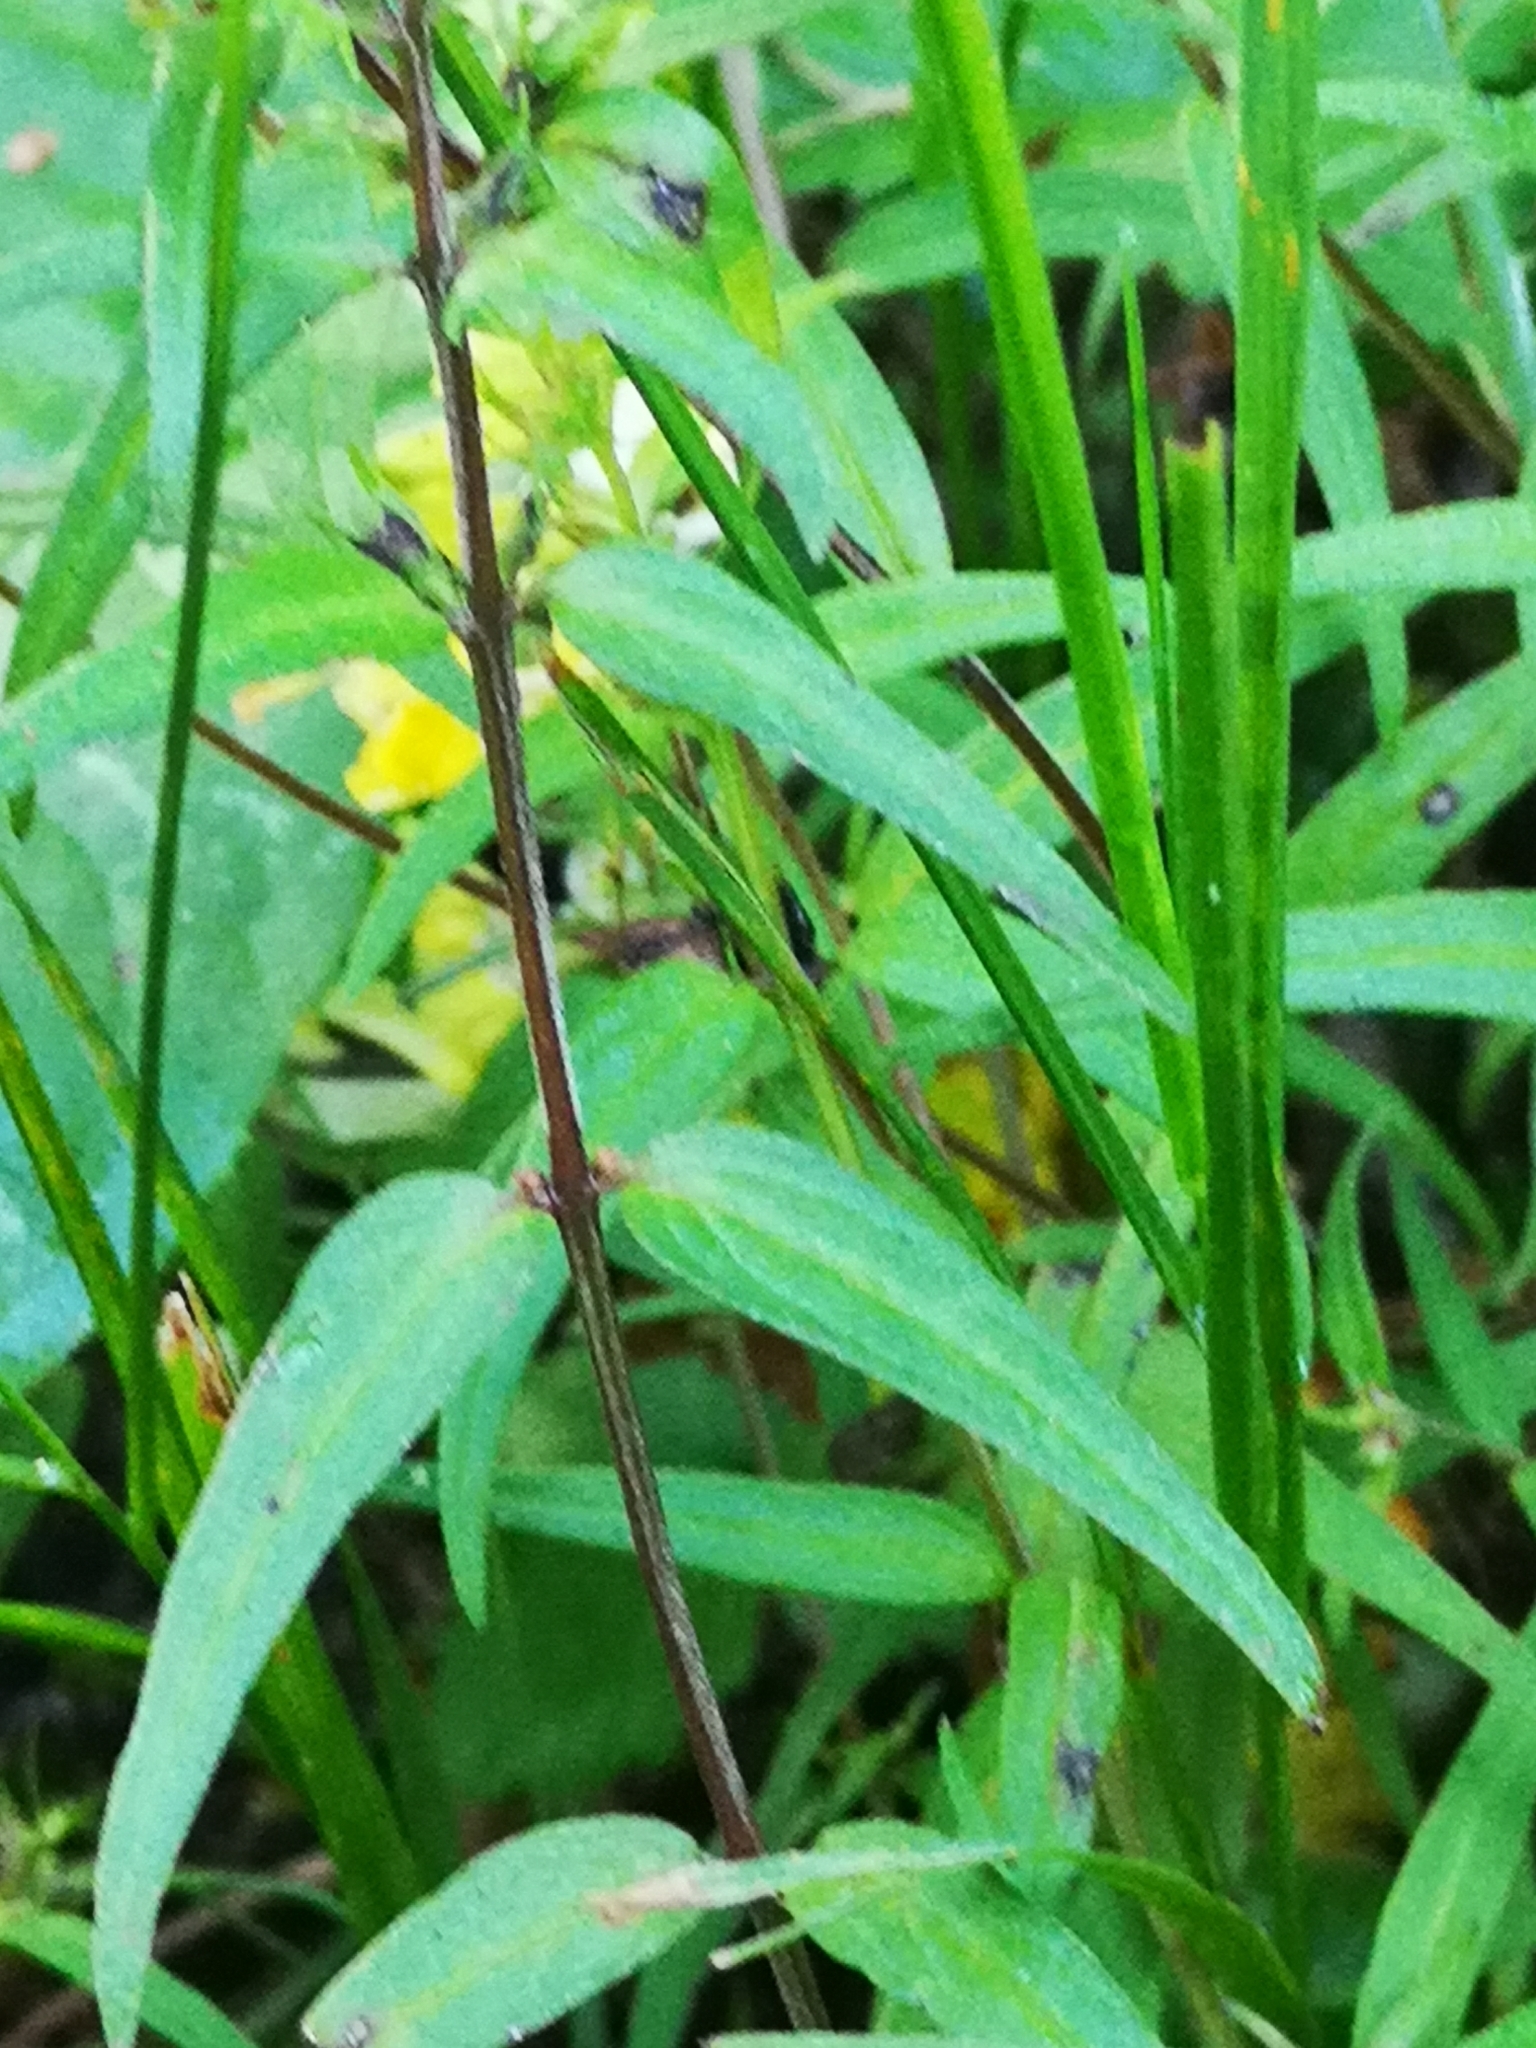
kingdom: Plantae
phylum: Tracheophyta
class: Magnoliopsida
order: Lamiales
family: Orobanchaceae
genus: Melampyrum
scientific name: Melampyrum pratense
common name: Common cow-wheat
